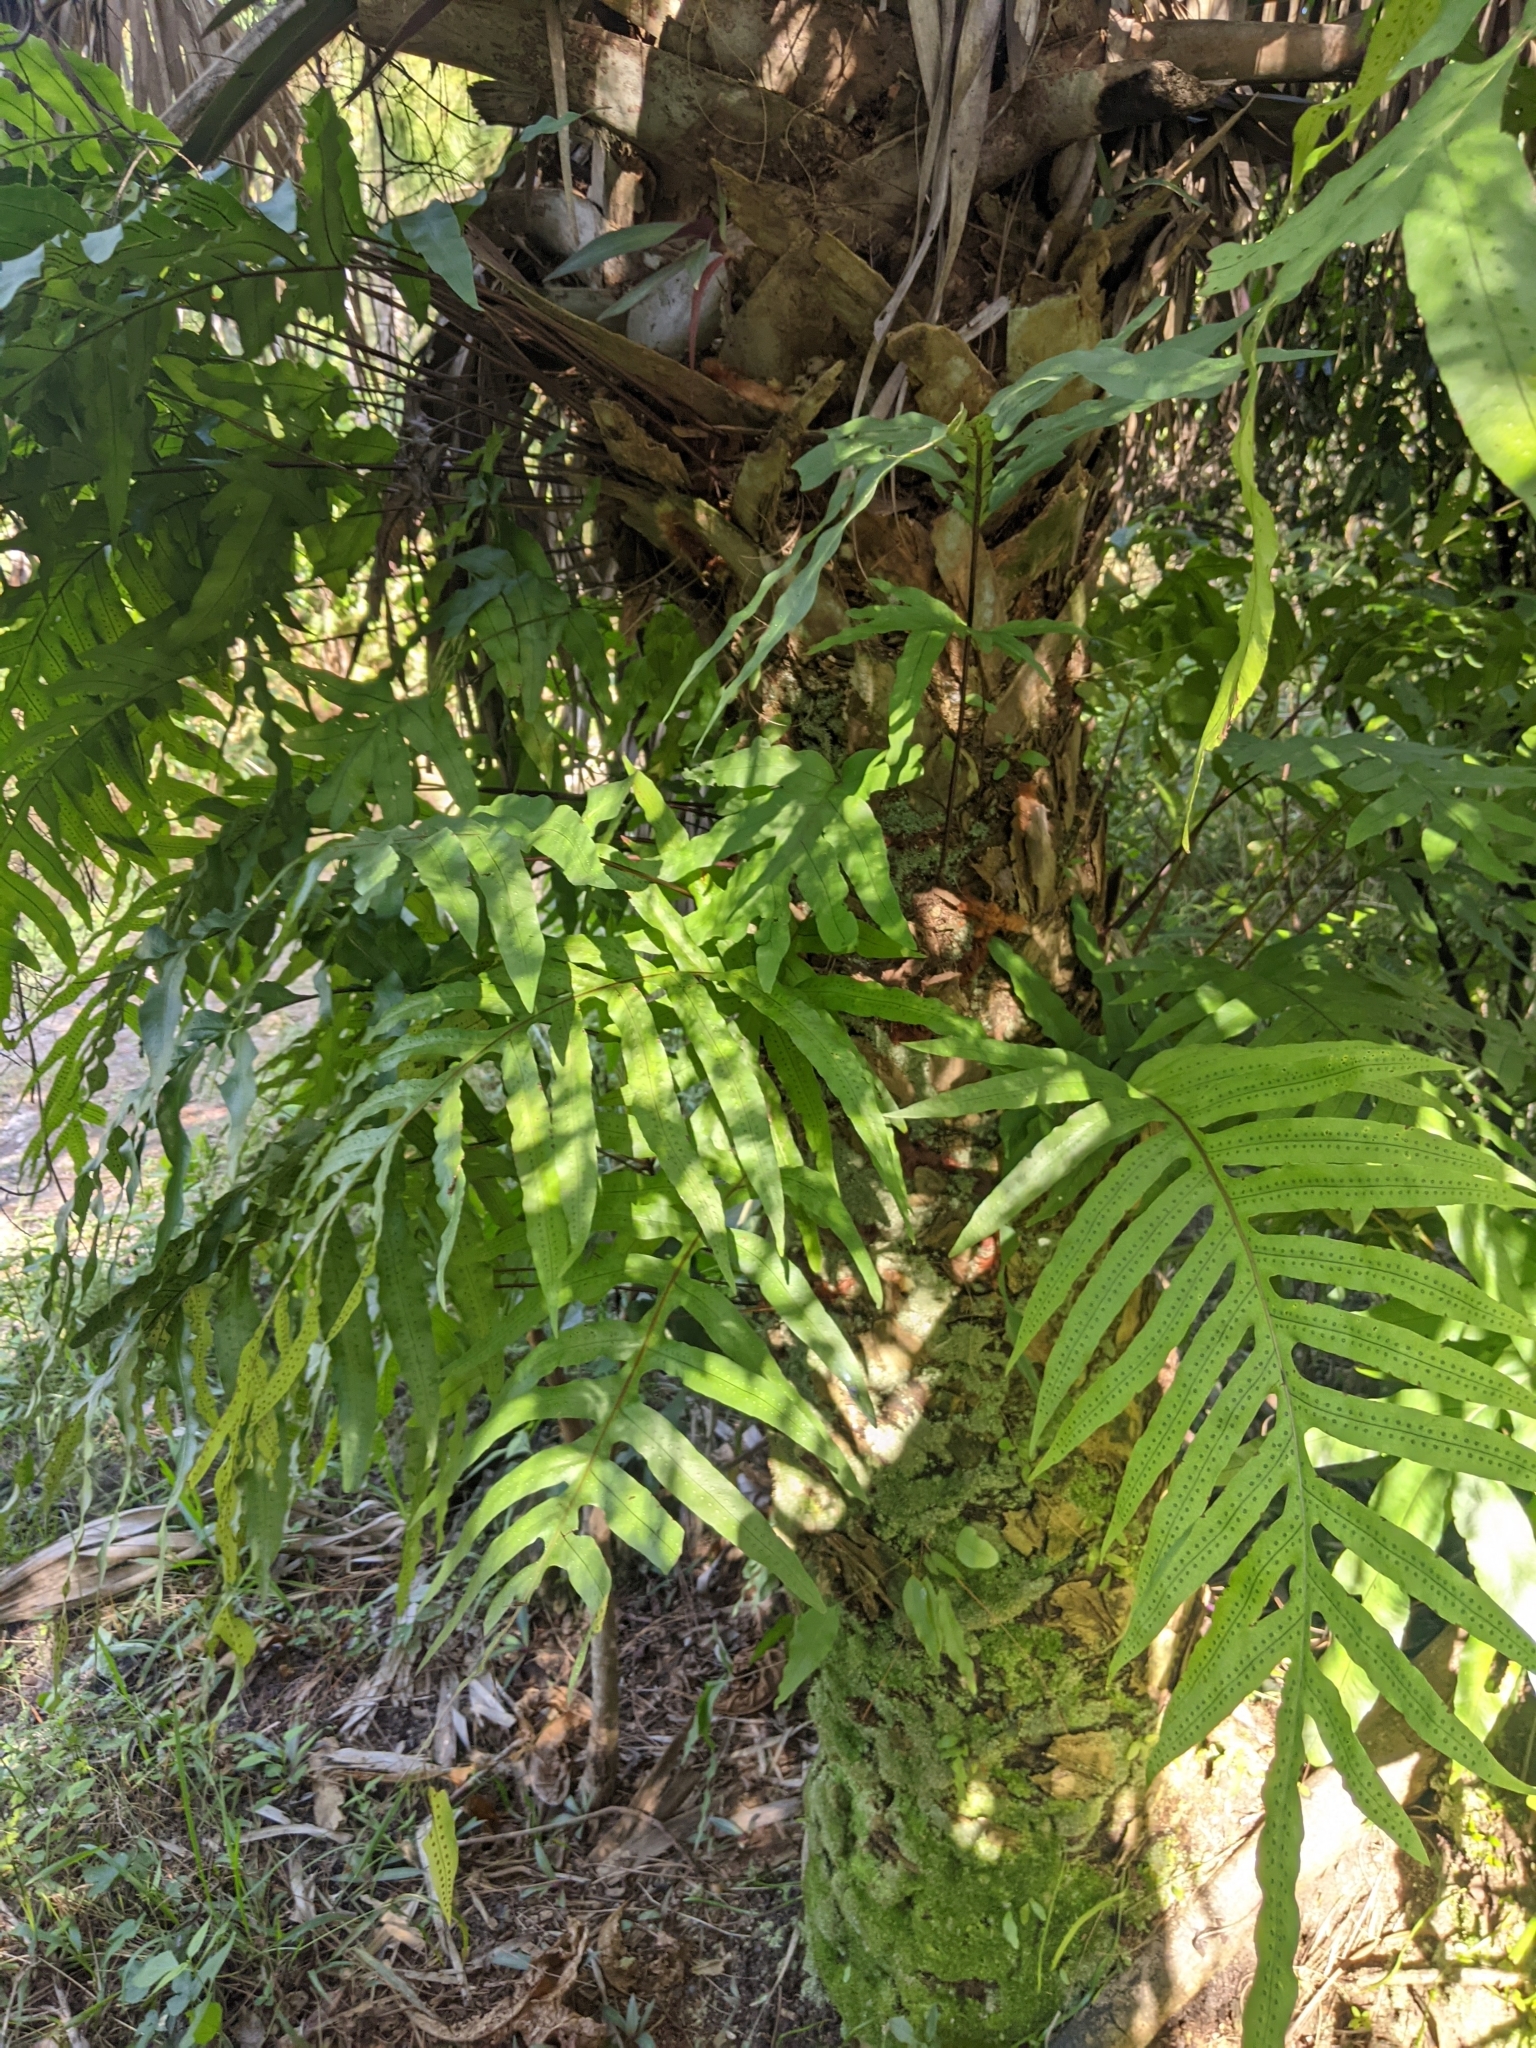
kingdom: Plantae
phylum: Tracheophyta
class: Polypodiopsida
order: Polypodiales
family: Polypodiaceae
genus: Phlebodium
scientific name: Phlebodium aureum
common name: Gold-foot fern
